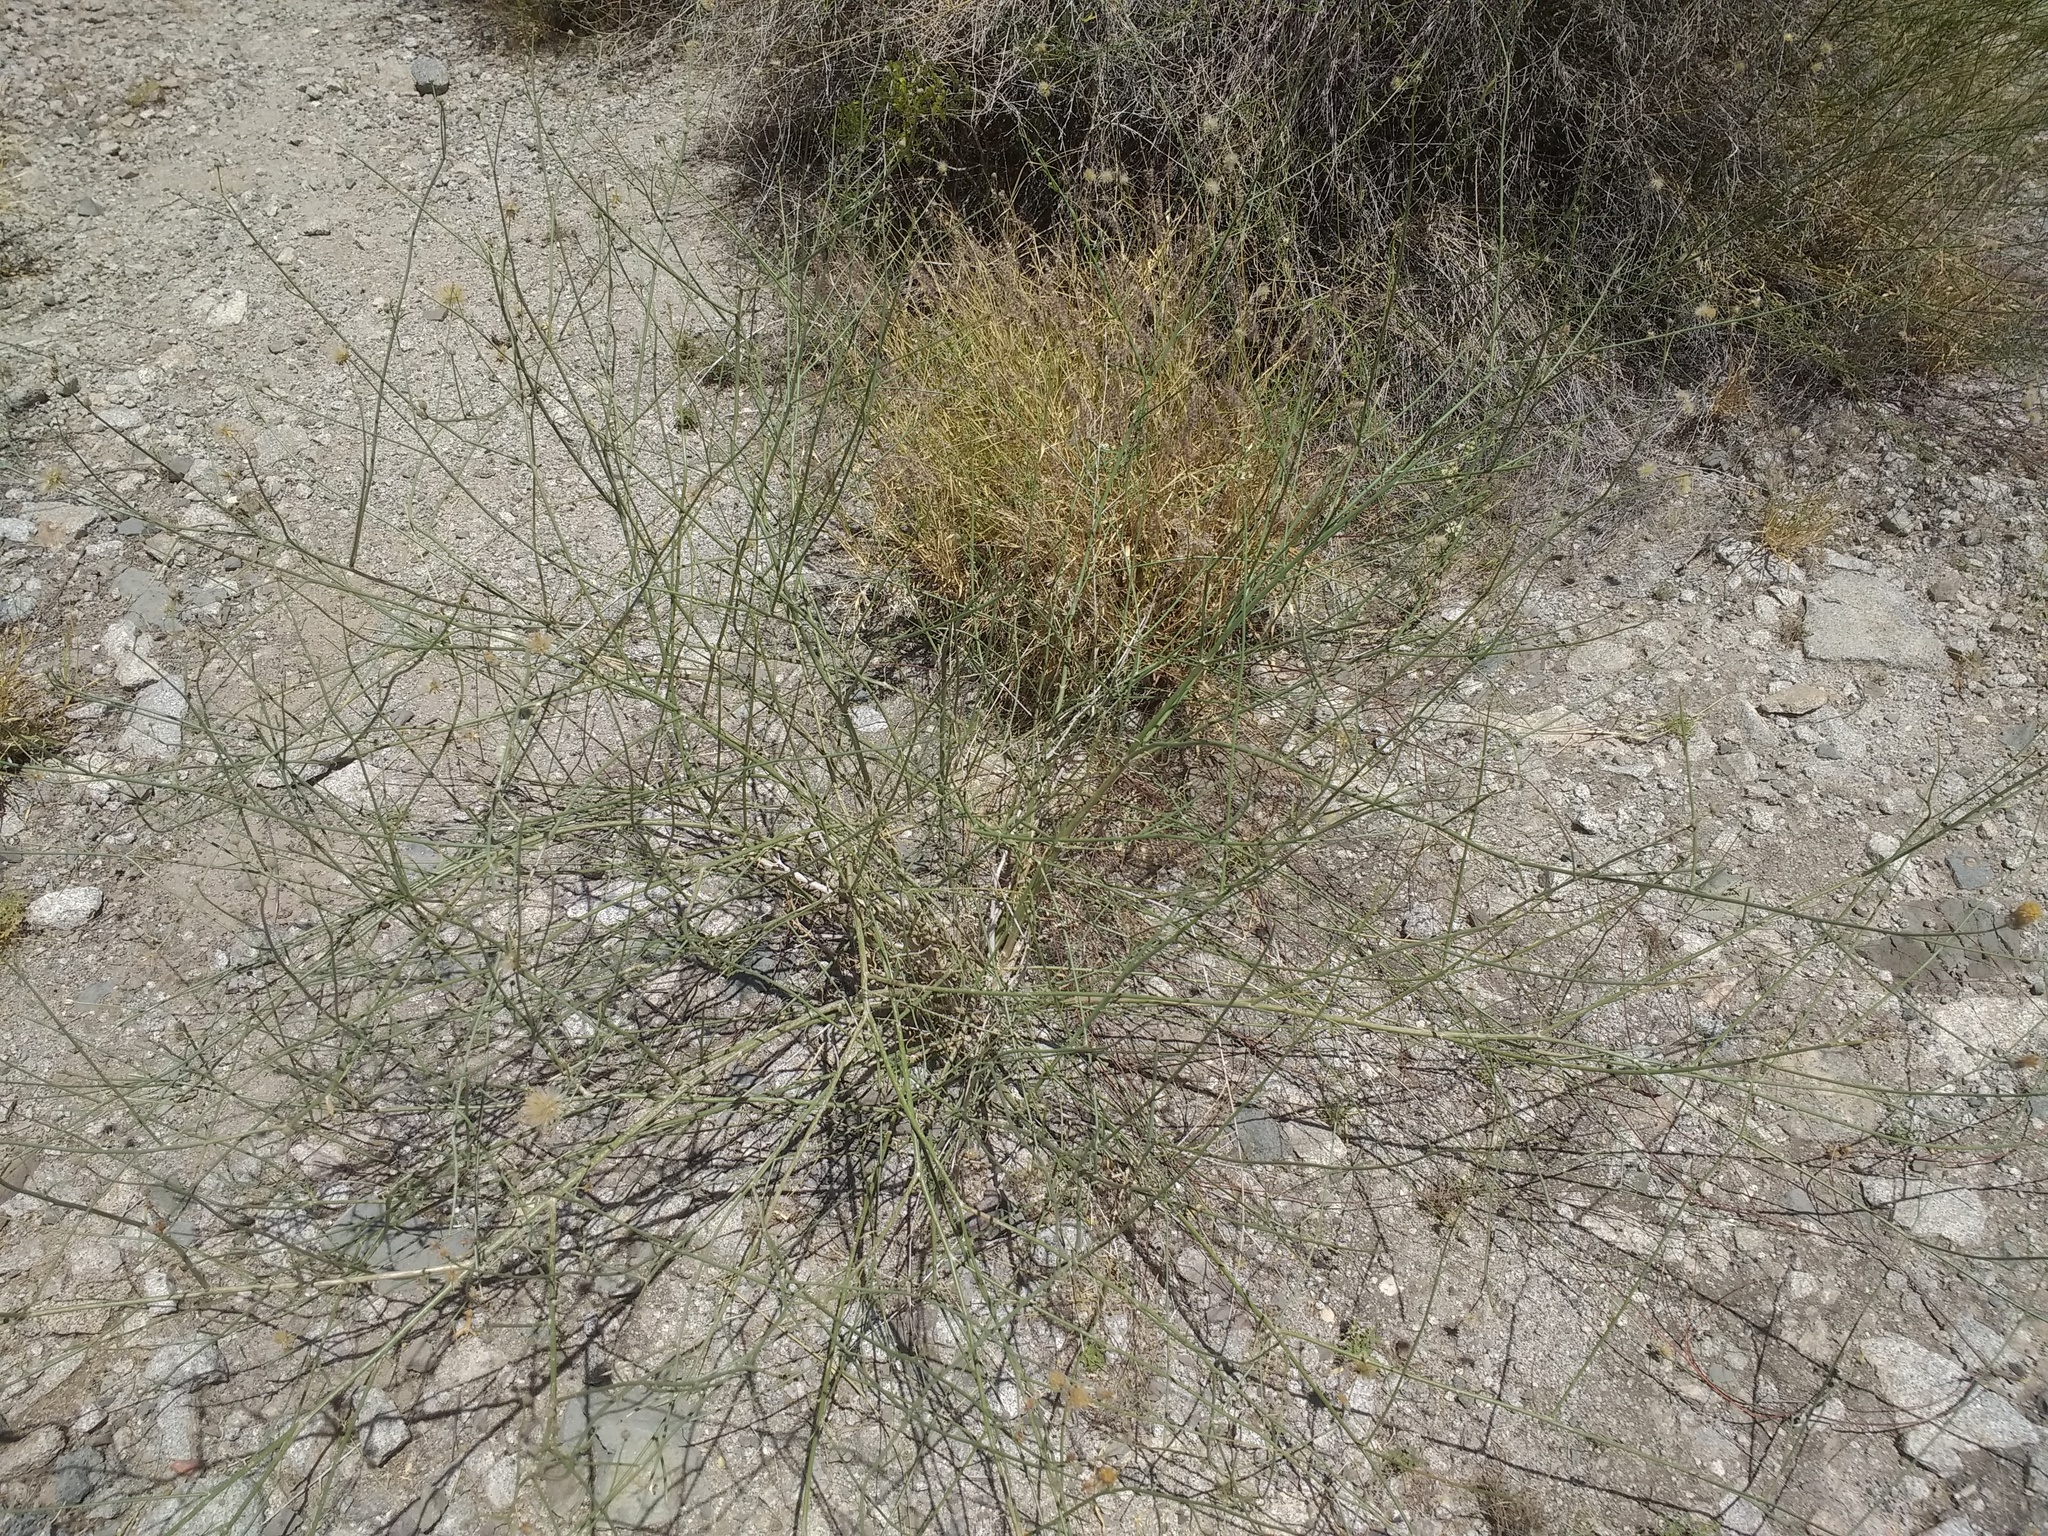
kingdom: Plantae
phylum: Tracheophyta
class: Magnoliopsida
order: Asterales
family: Asteraceae
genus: Bebbia
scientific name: Bebbia juncea
